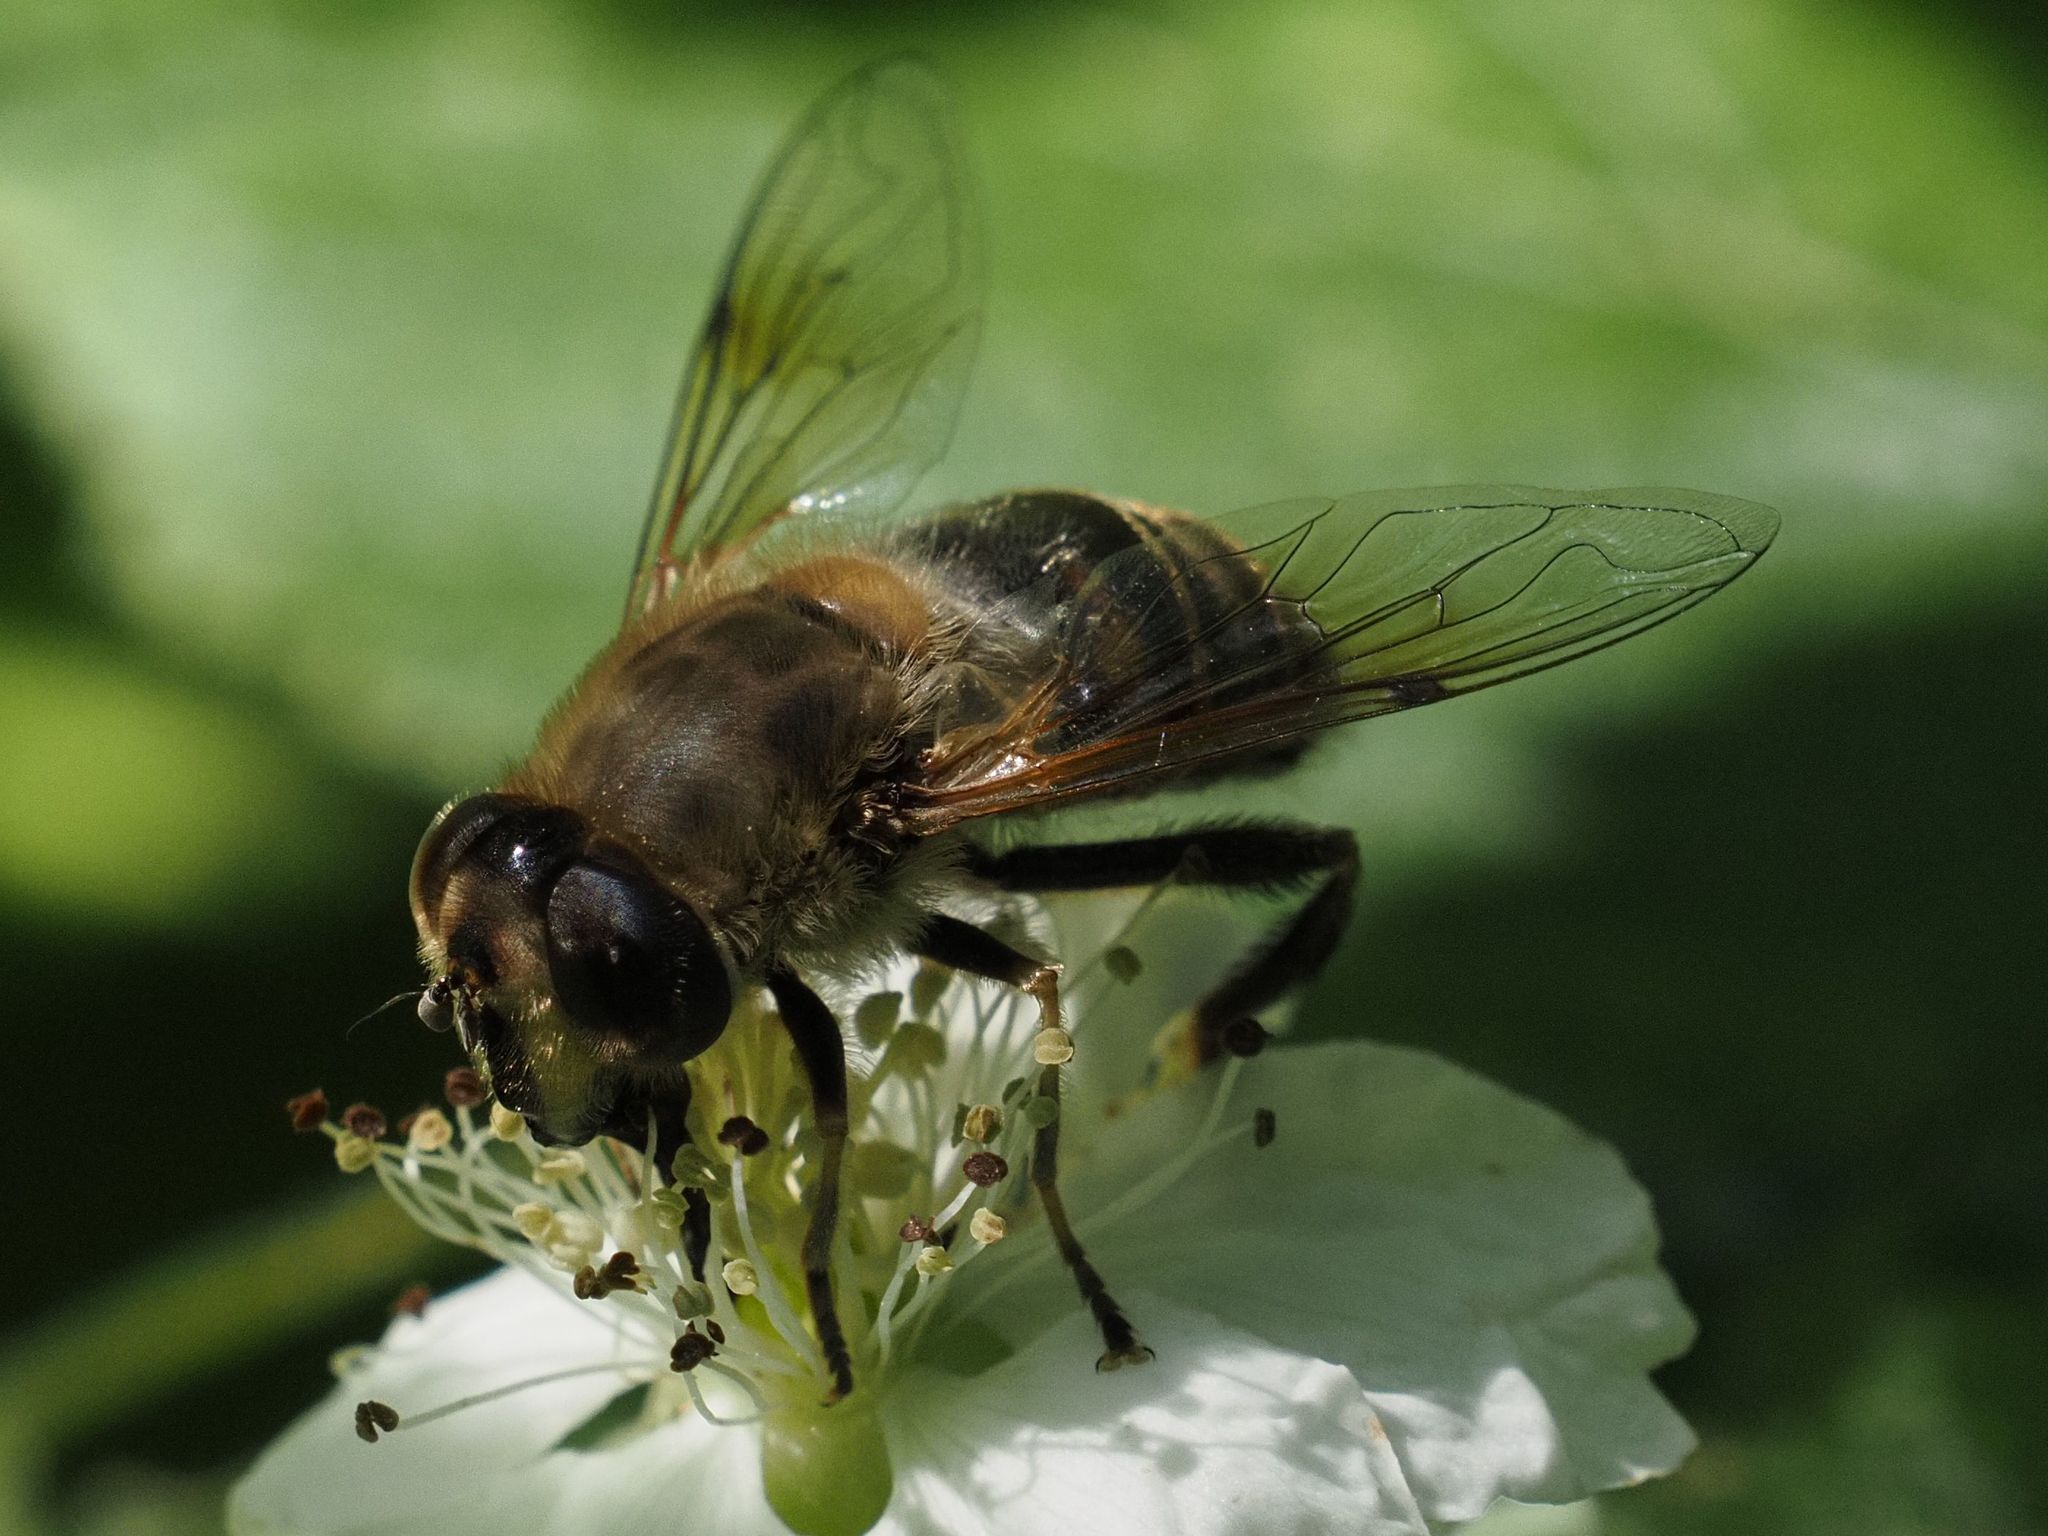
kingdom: Animalia
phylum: Arthropoda
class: Insecta
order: Diptera
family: Syrphidae
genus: Eristalis
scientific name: Eristalis tenax
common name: Drone fly
